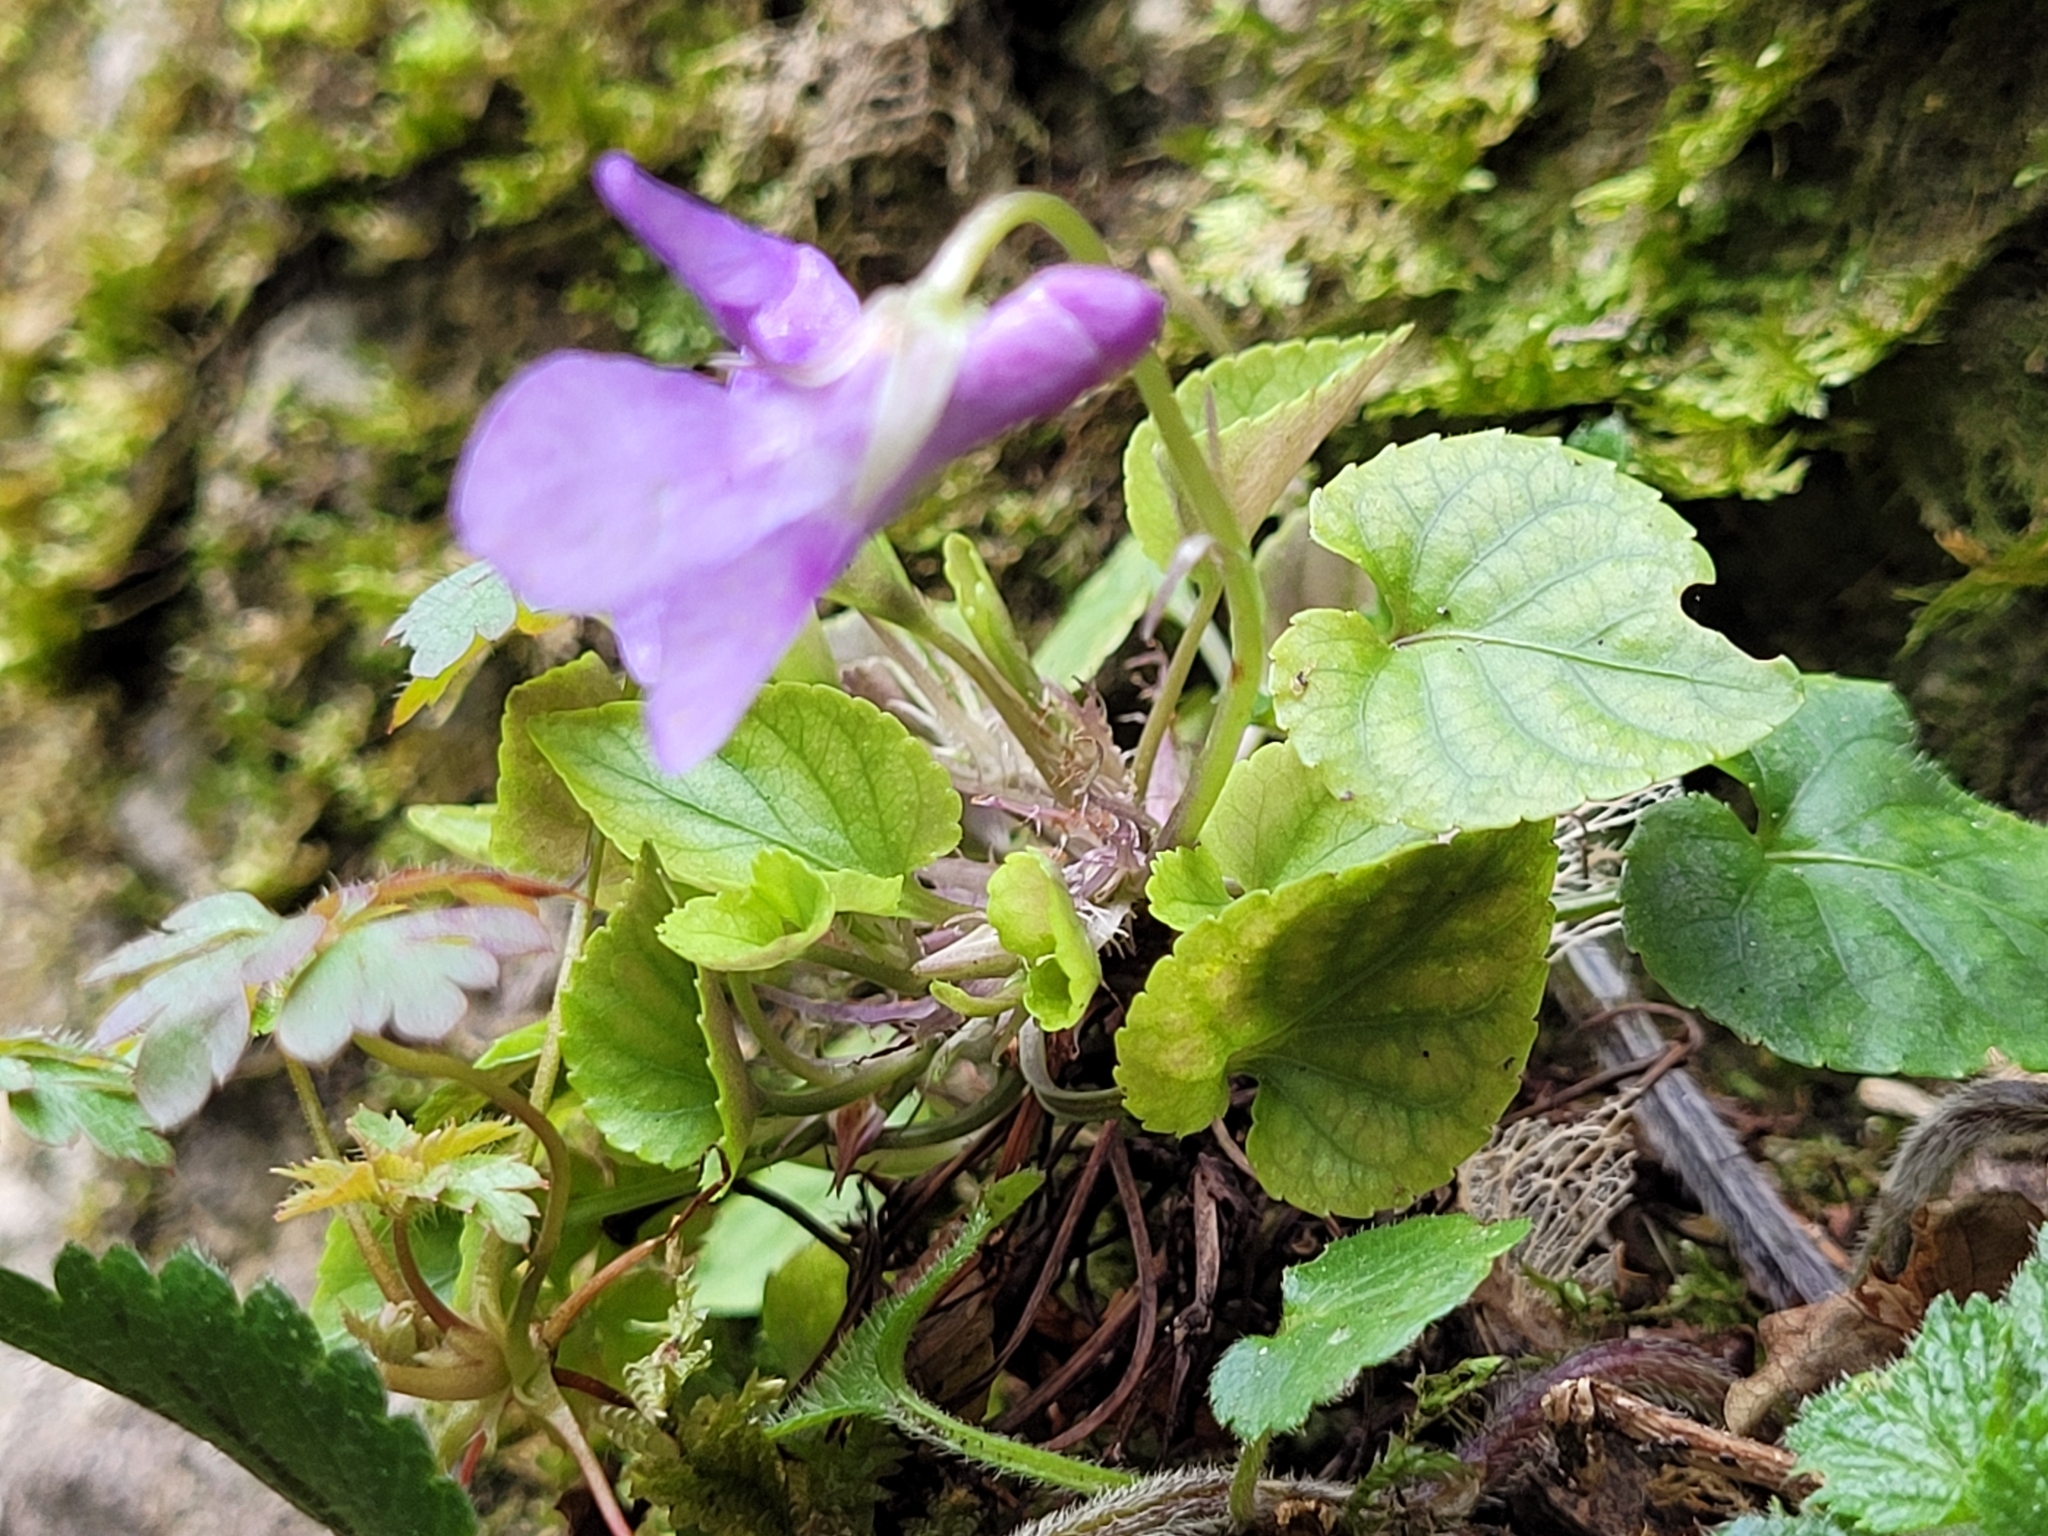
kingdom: Plantae
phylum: Tracheophyta
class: Magnoliopsida
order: Malpighiales
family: Violaceae
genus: Viola
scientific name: Viola reichenbachiana
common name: Early dog-violet
